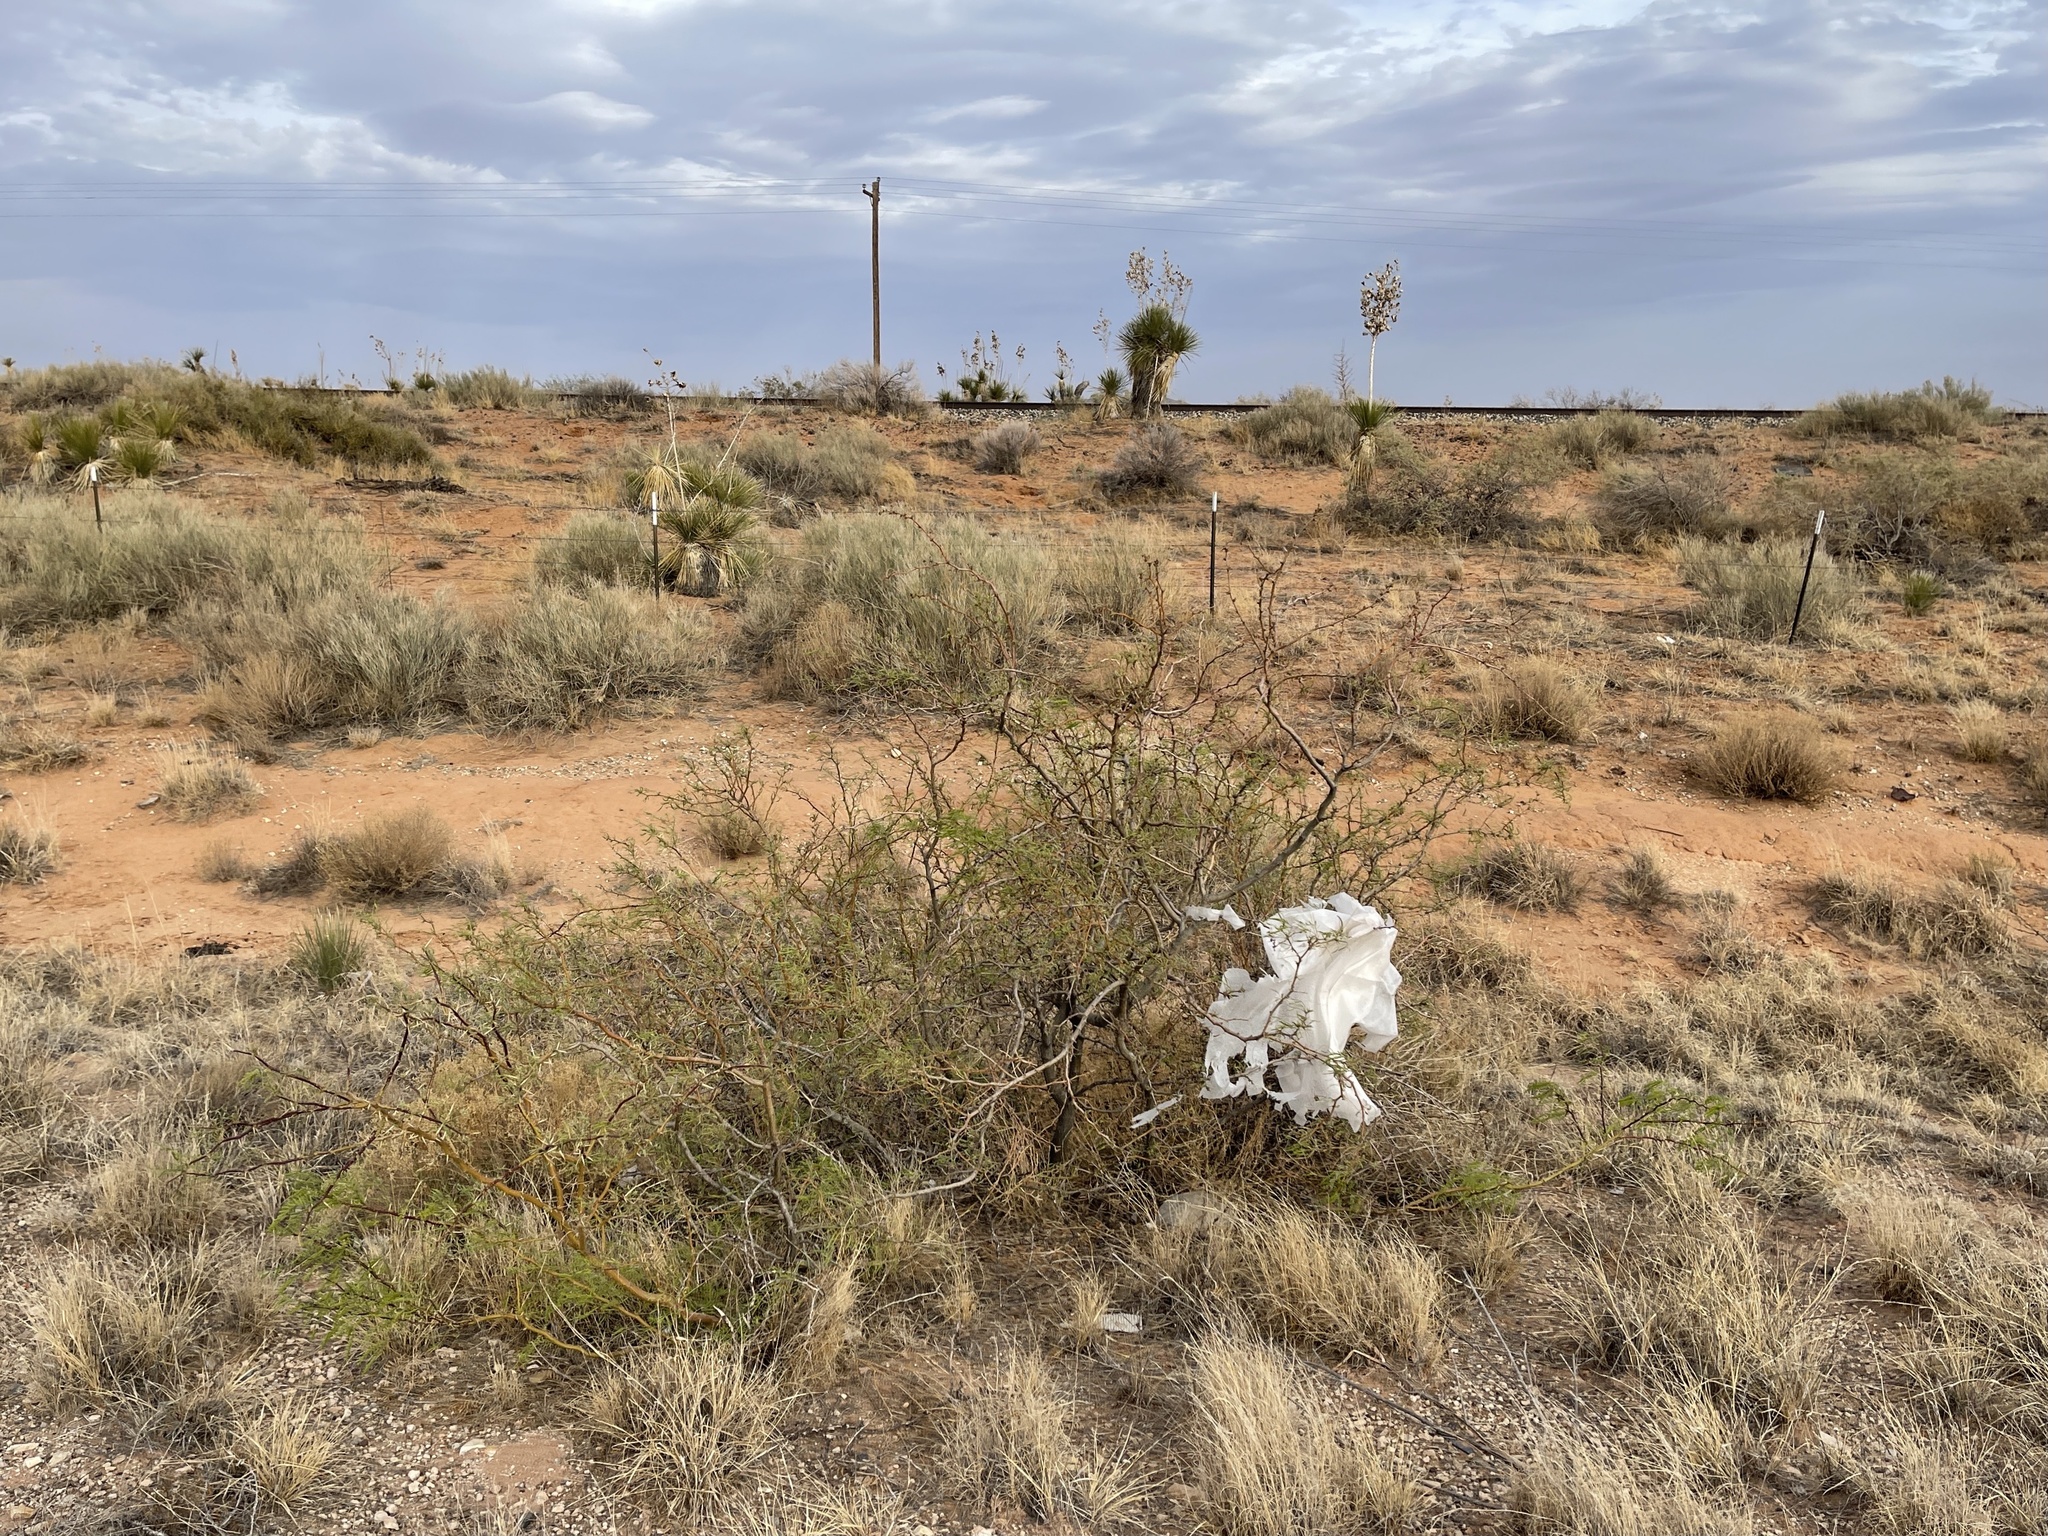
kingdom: Plantae
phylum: Tracheophyta
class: Magnoliopsida
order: Fabales
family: Fabaceae
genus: Prosopis
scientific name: Prosopis glandulosa
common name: Honey mesquite
